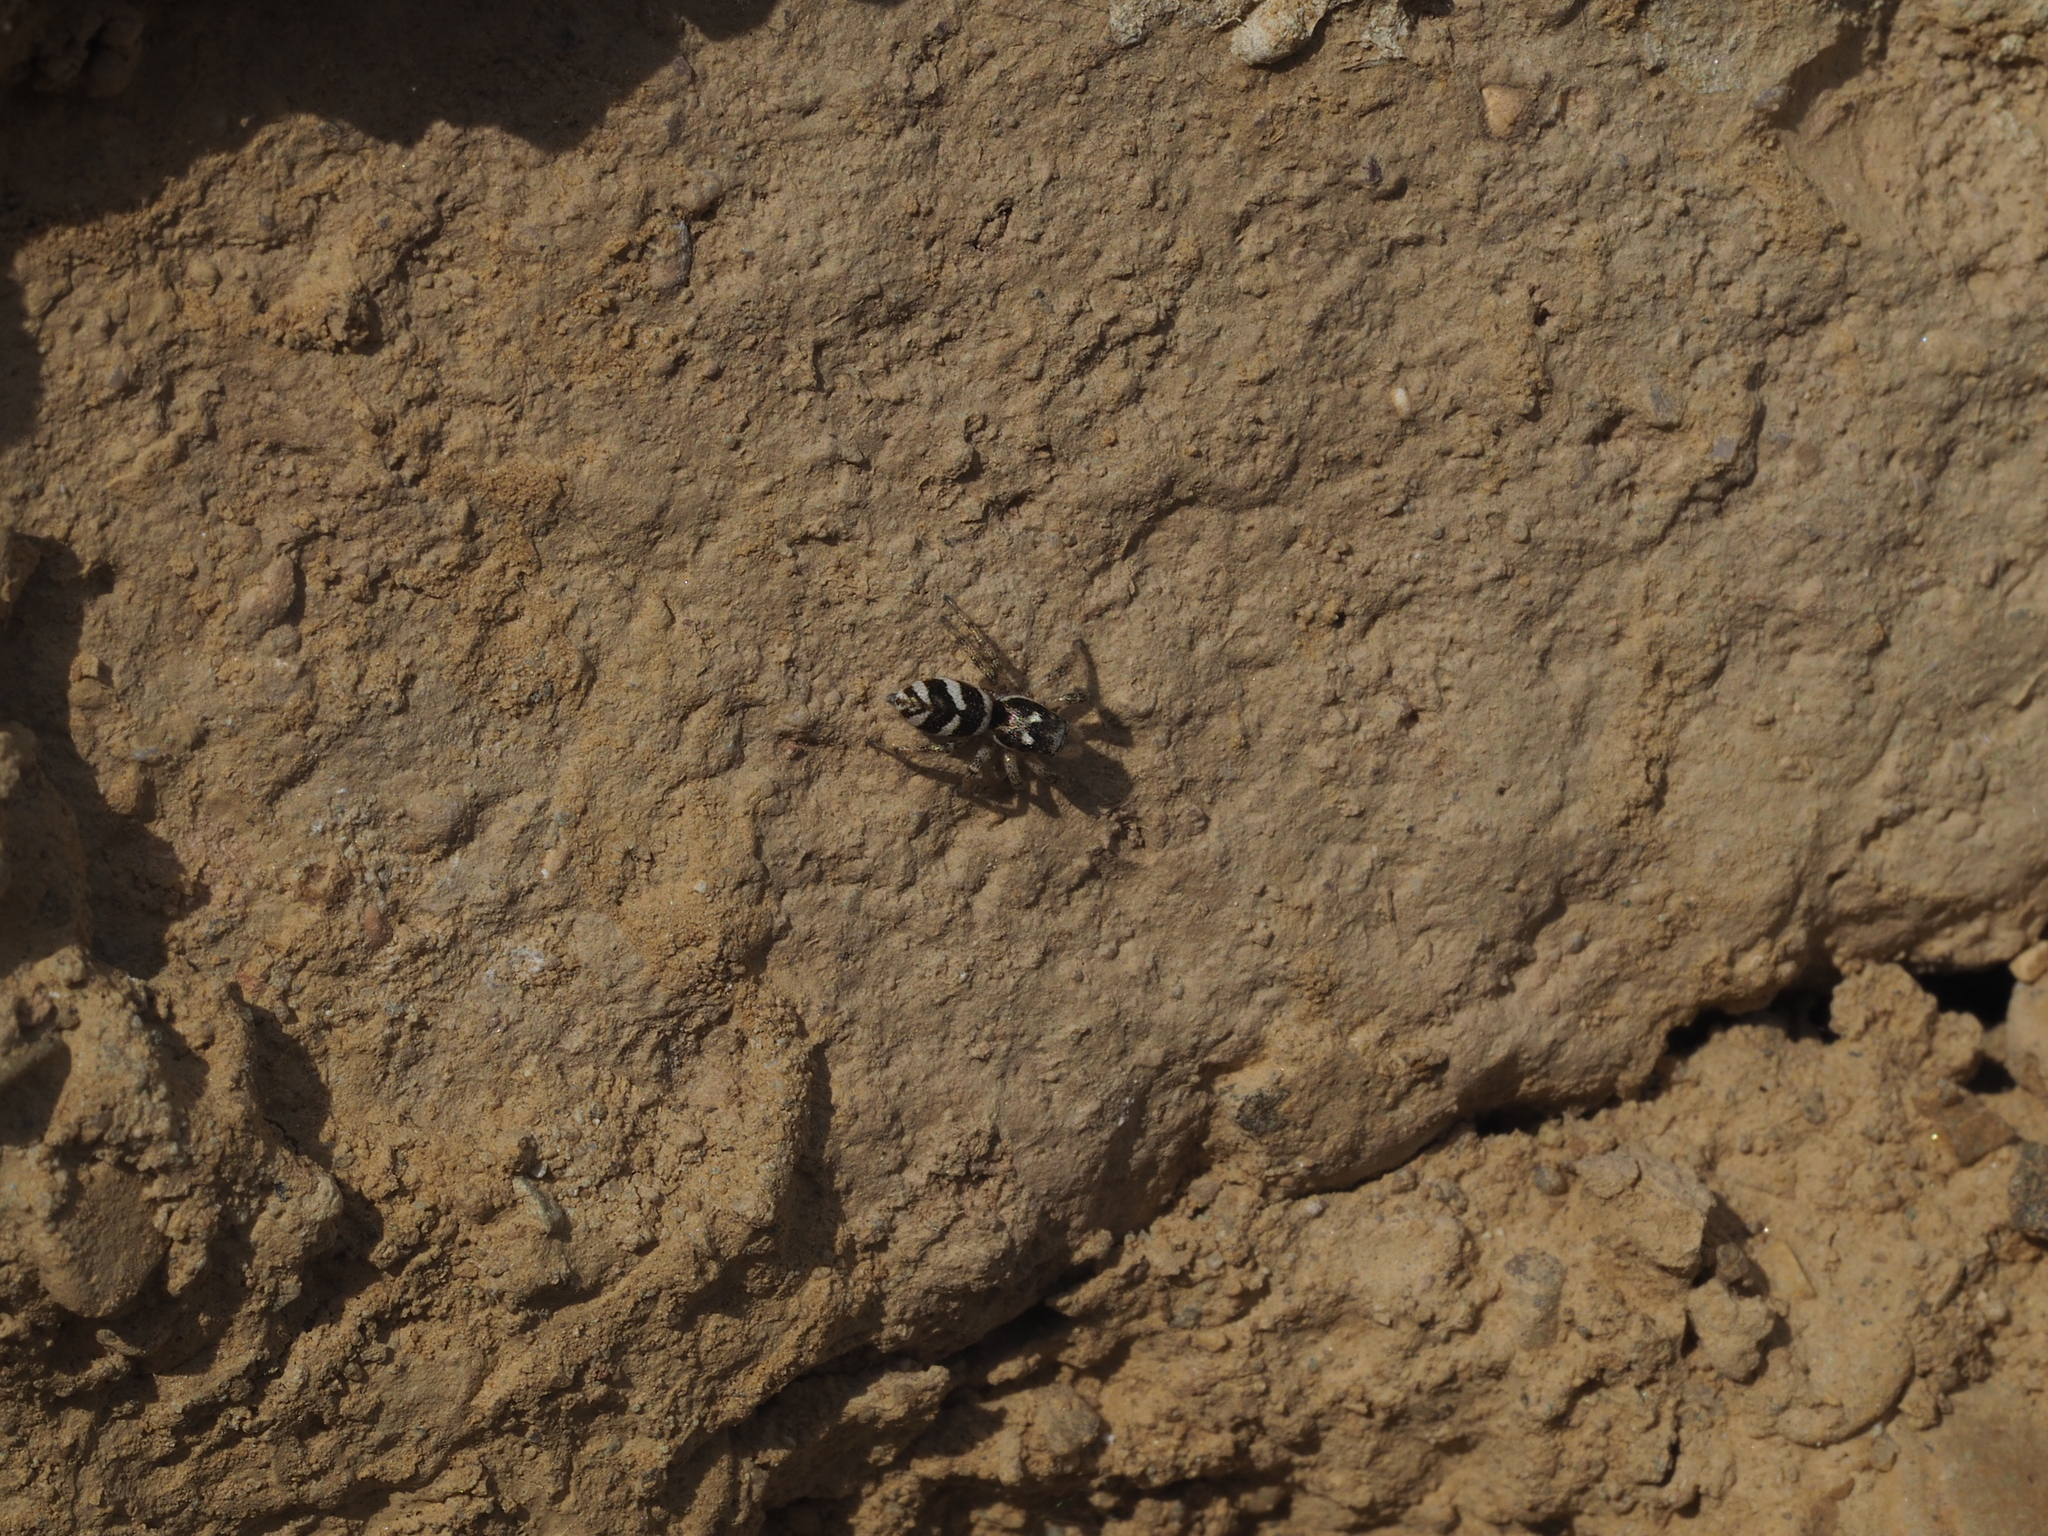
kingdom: Animalia
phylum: Arthropoda
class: Arachnida
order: Araneae
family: Salticidae
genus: Salticus
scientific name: Salticus scenicus
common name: Zebra jumper
